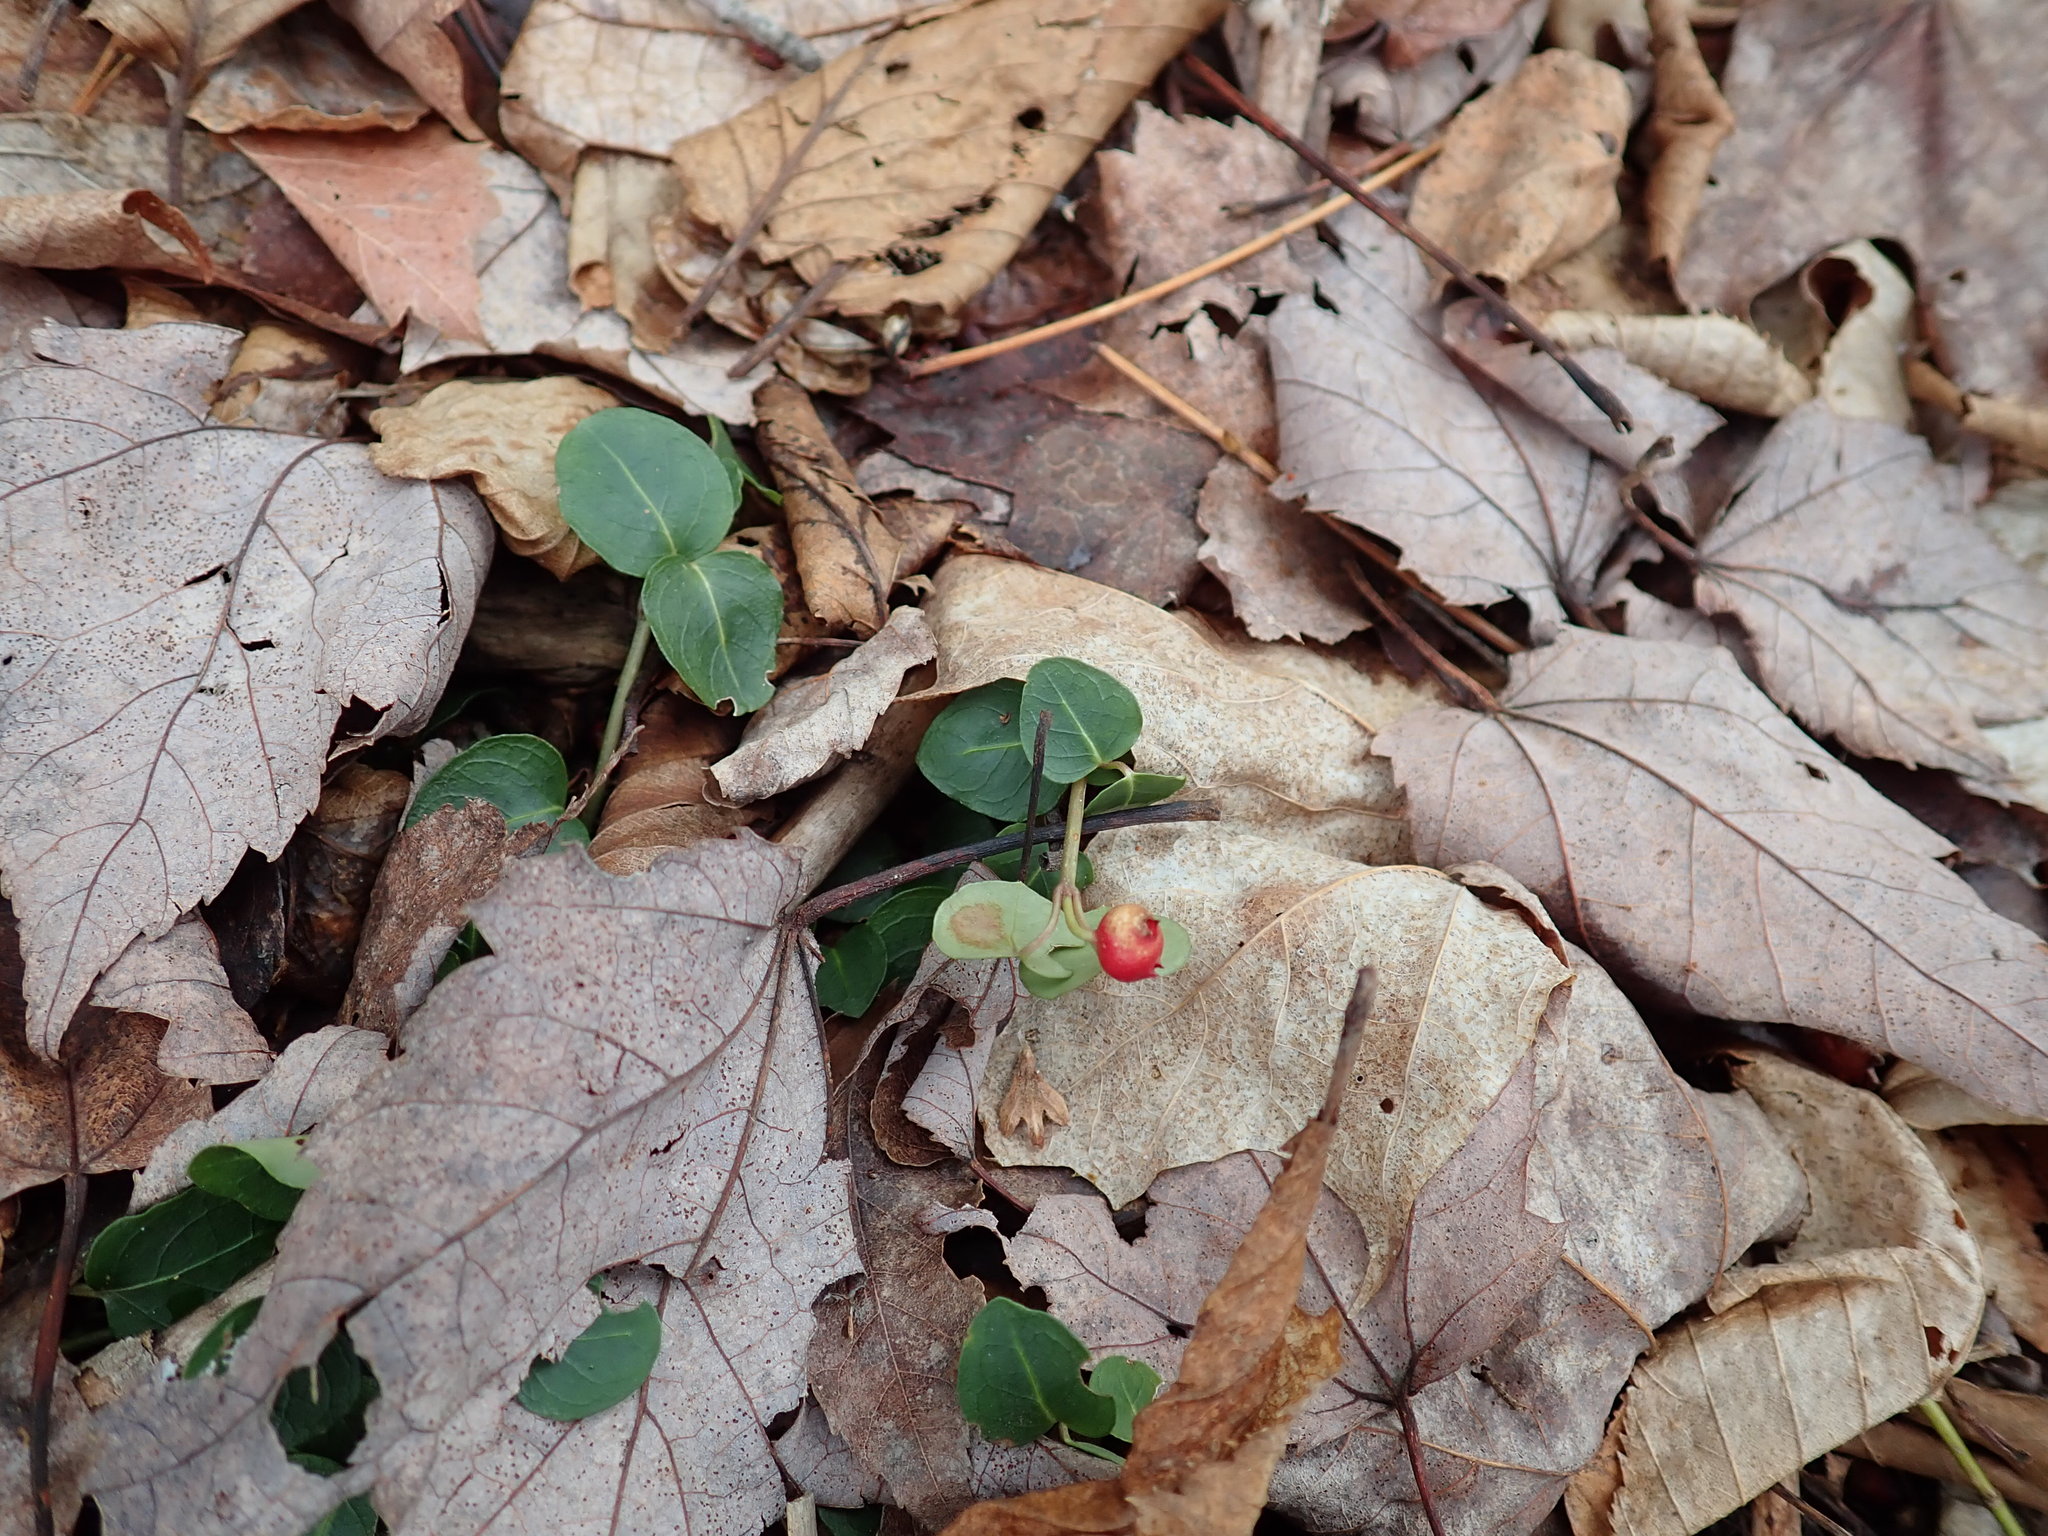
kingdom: Plantae
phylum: Tracheophyta
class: Magnoliopsida
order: Gentianales
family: Rubiaceae
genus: Mitchella
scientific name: Mitchella repens
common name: Partridge-berry
